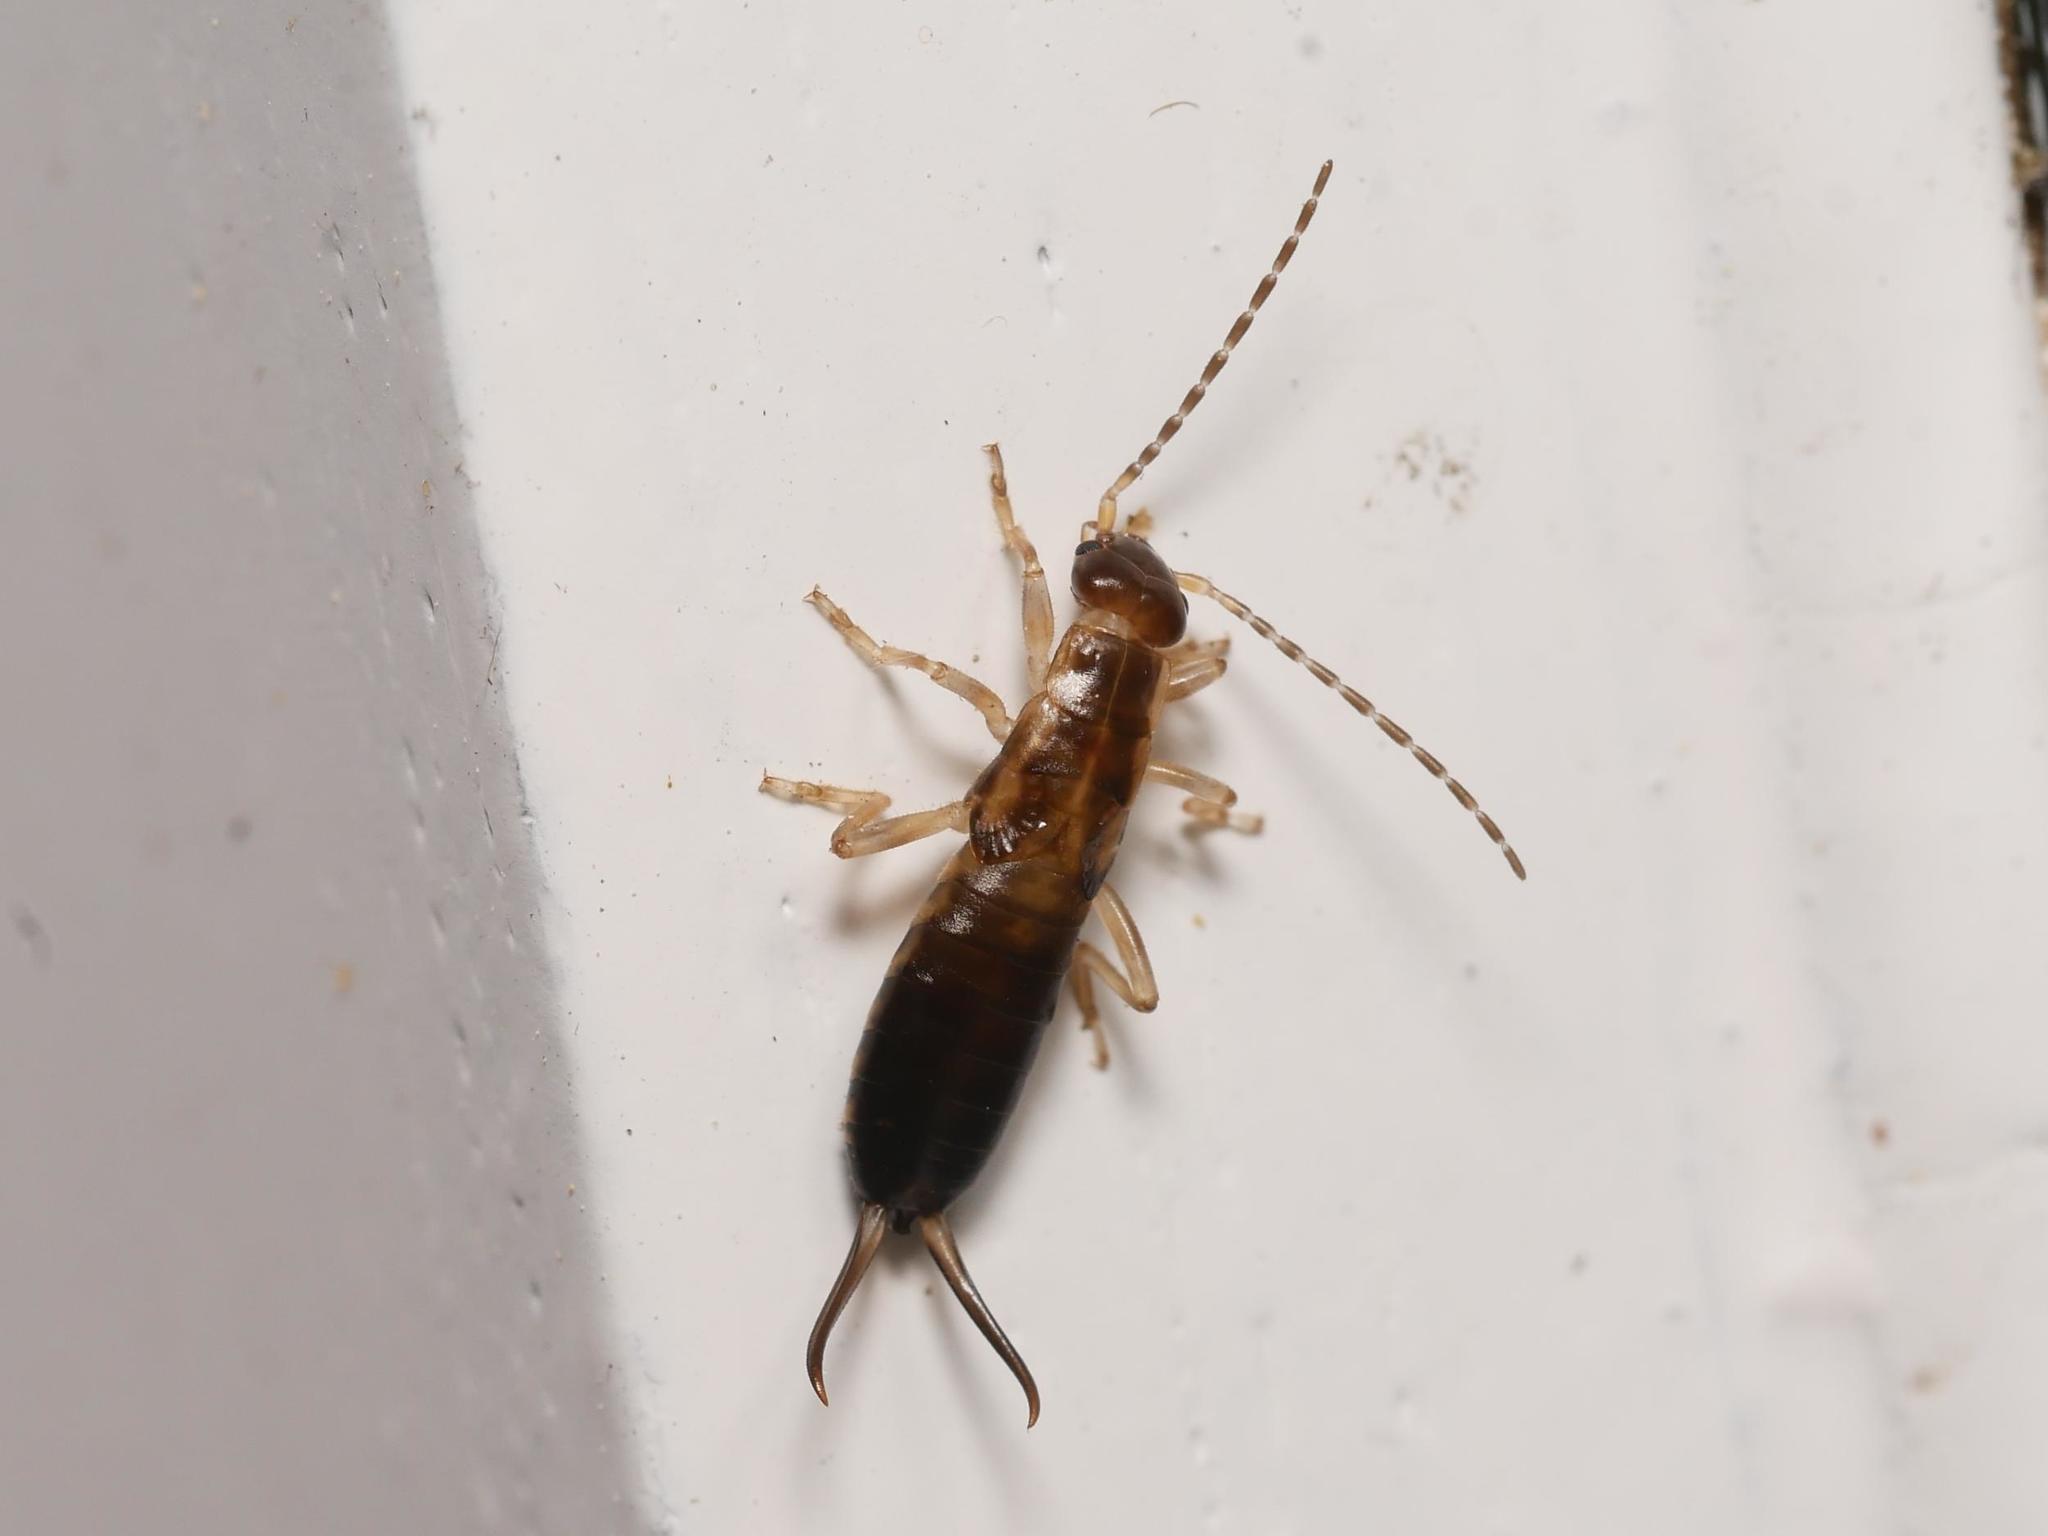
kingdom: Animalia
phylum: Arthropoda
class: Insecta
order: Dermaptera
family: Forficulidae
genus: Forficula
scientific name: Forficula
